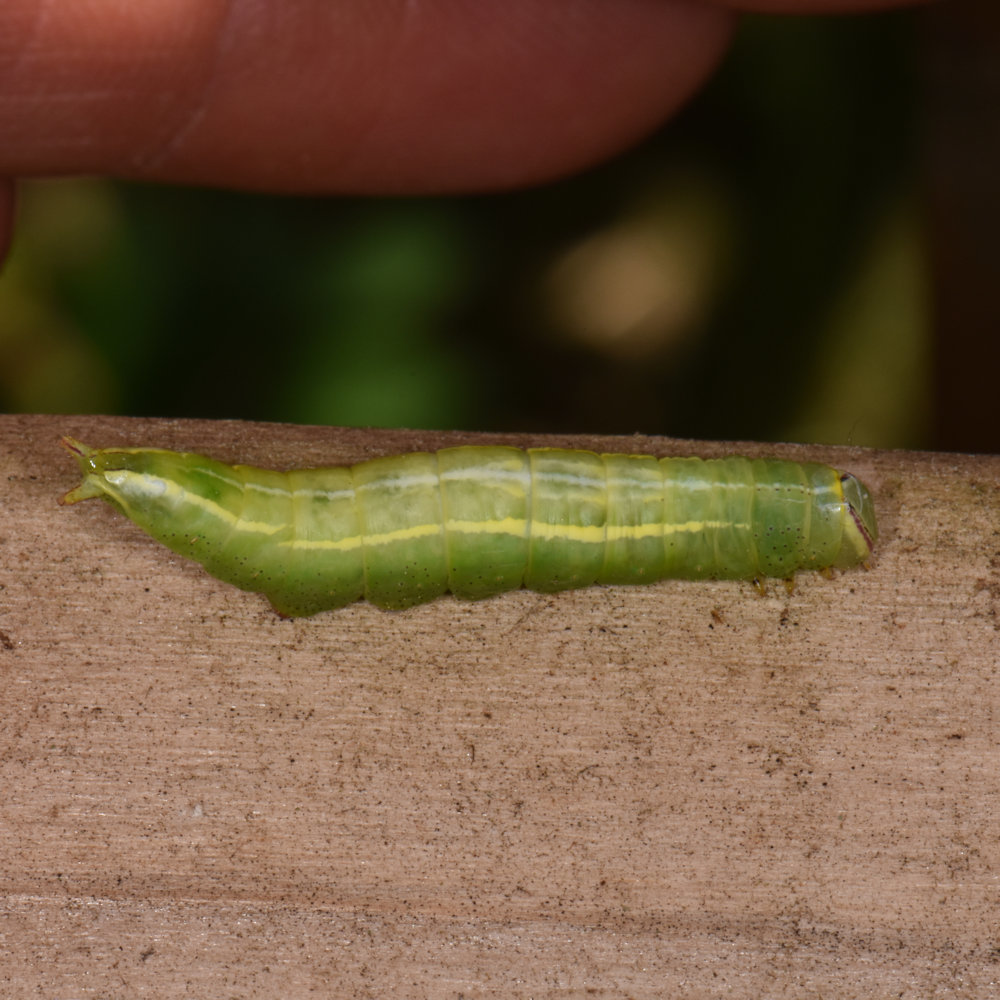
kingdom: Animalia
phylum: Arthropoda
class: Insecta
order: Lepidoptera
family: Notodontidae
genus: Disphragis
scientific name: Disphragis Cecrita guttivitta
